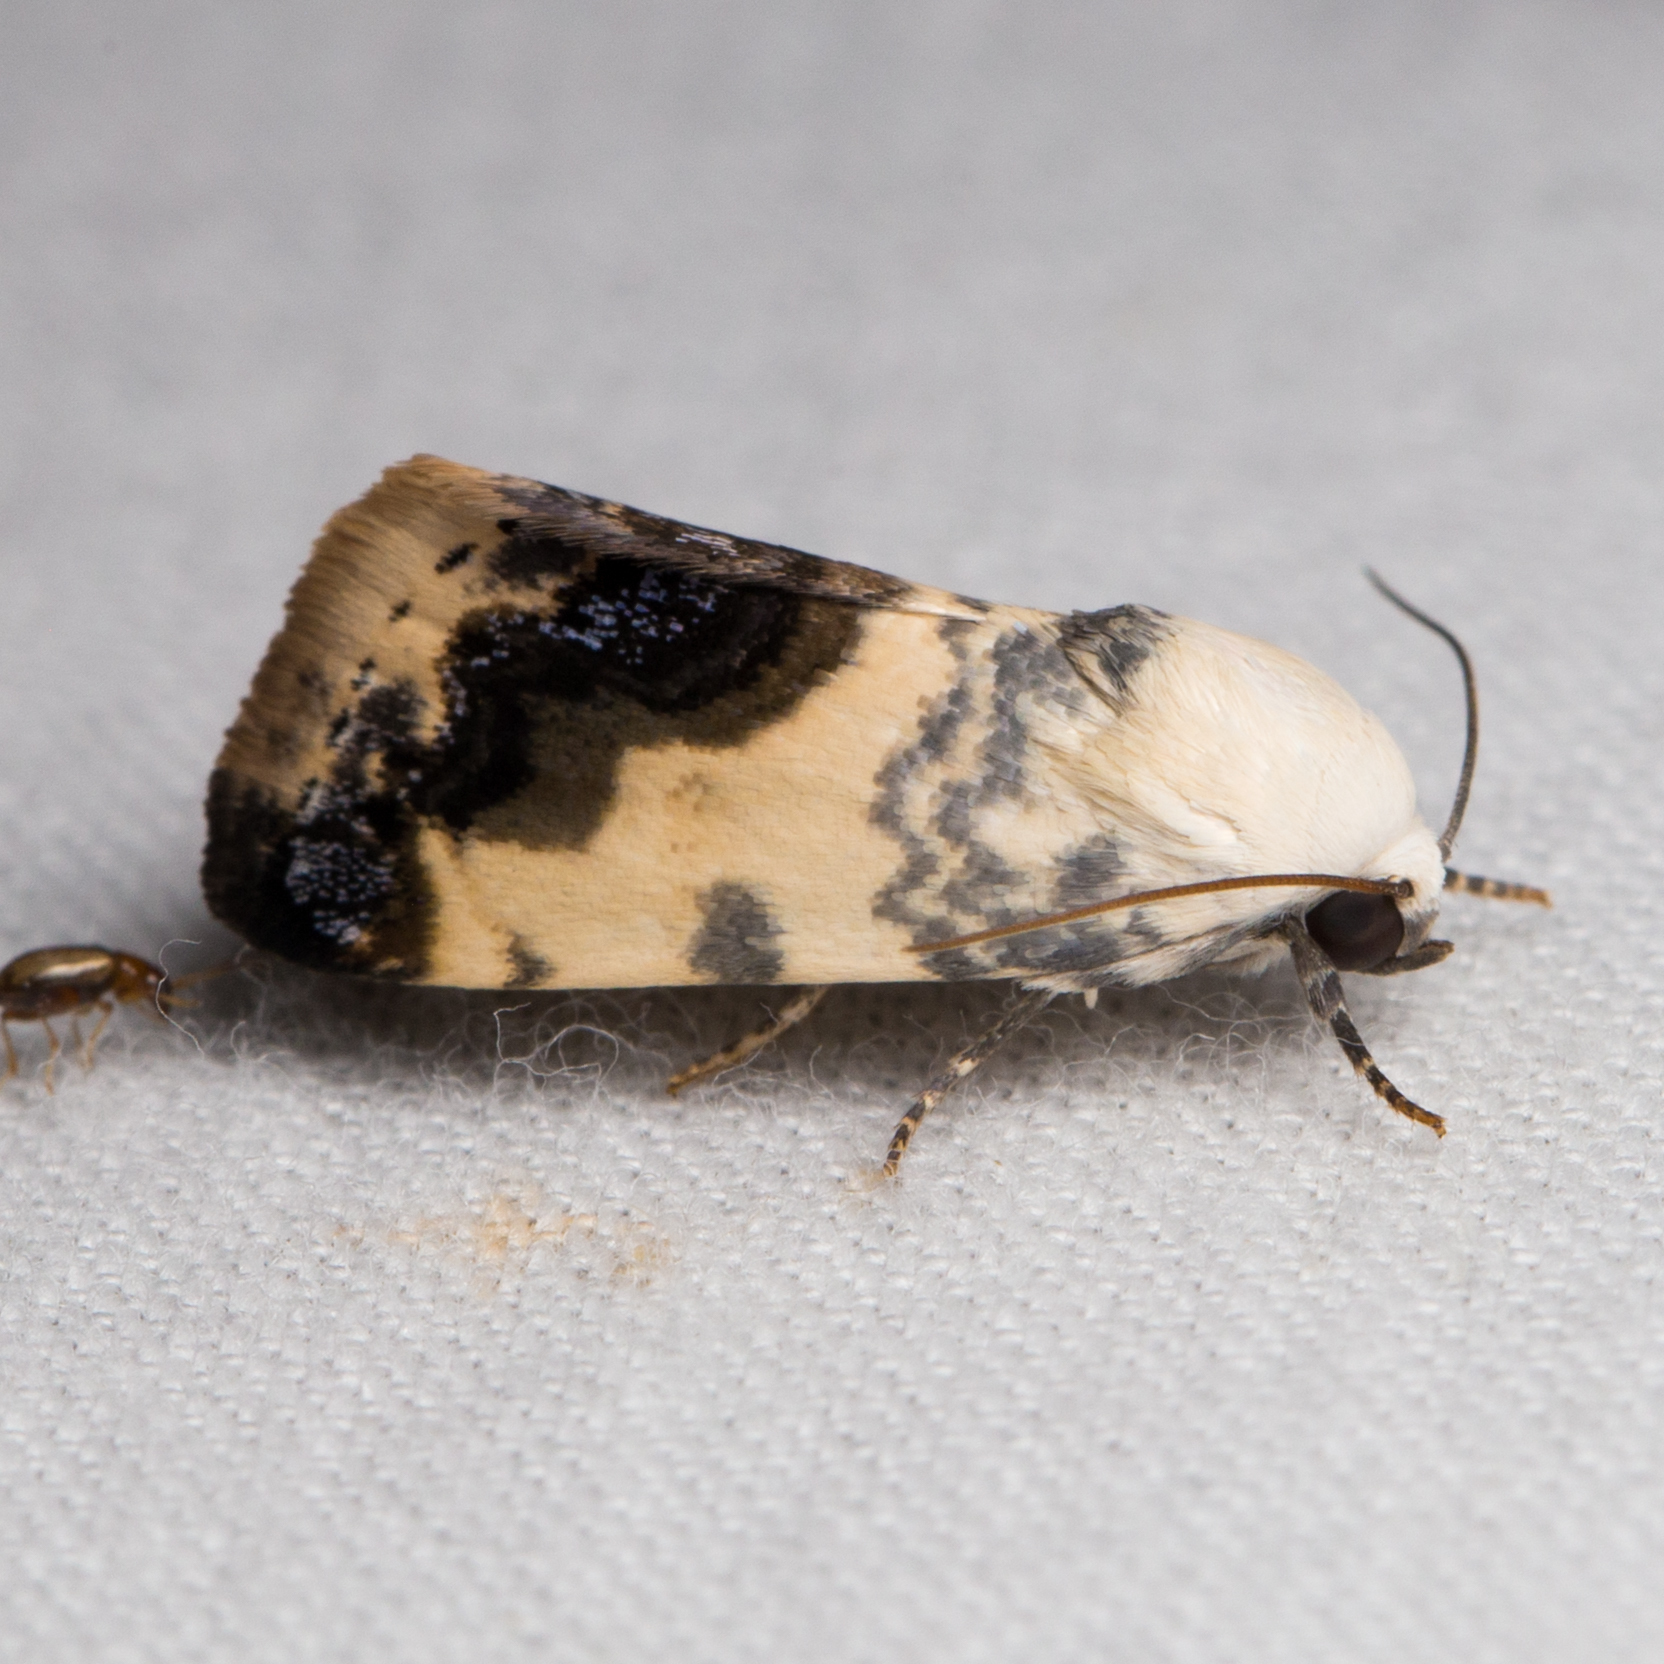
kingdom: Animalia
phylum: Arthropoda
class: Insecta
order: Lepidoptera
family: Noctuidae
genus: Acontia
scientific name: Acontia behrii
